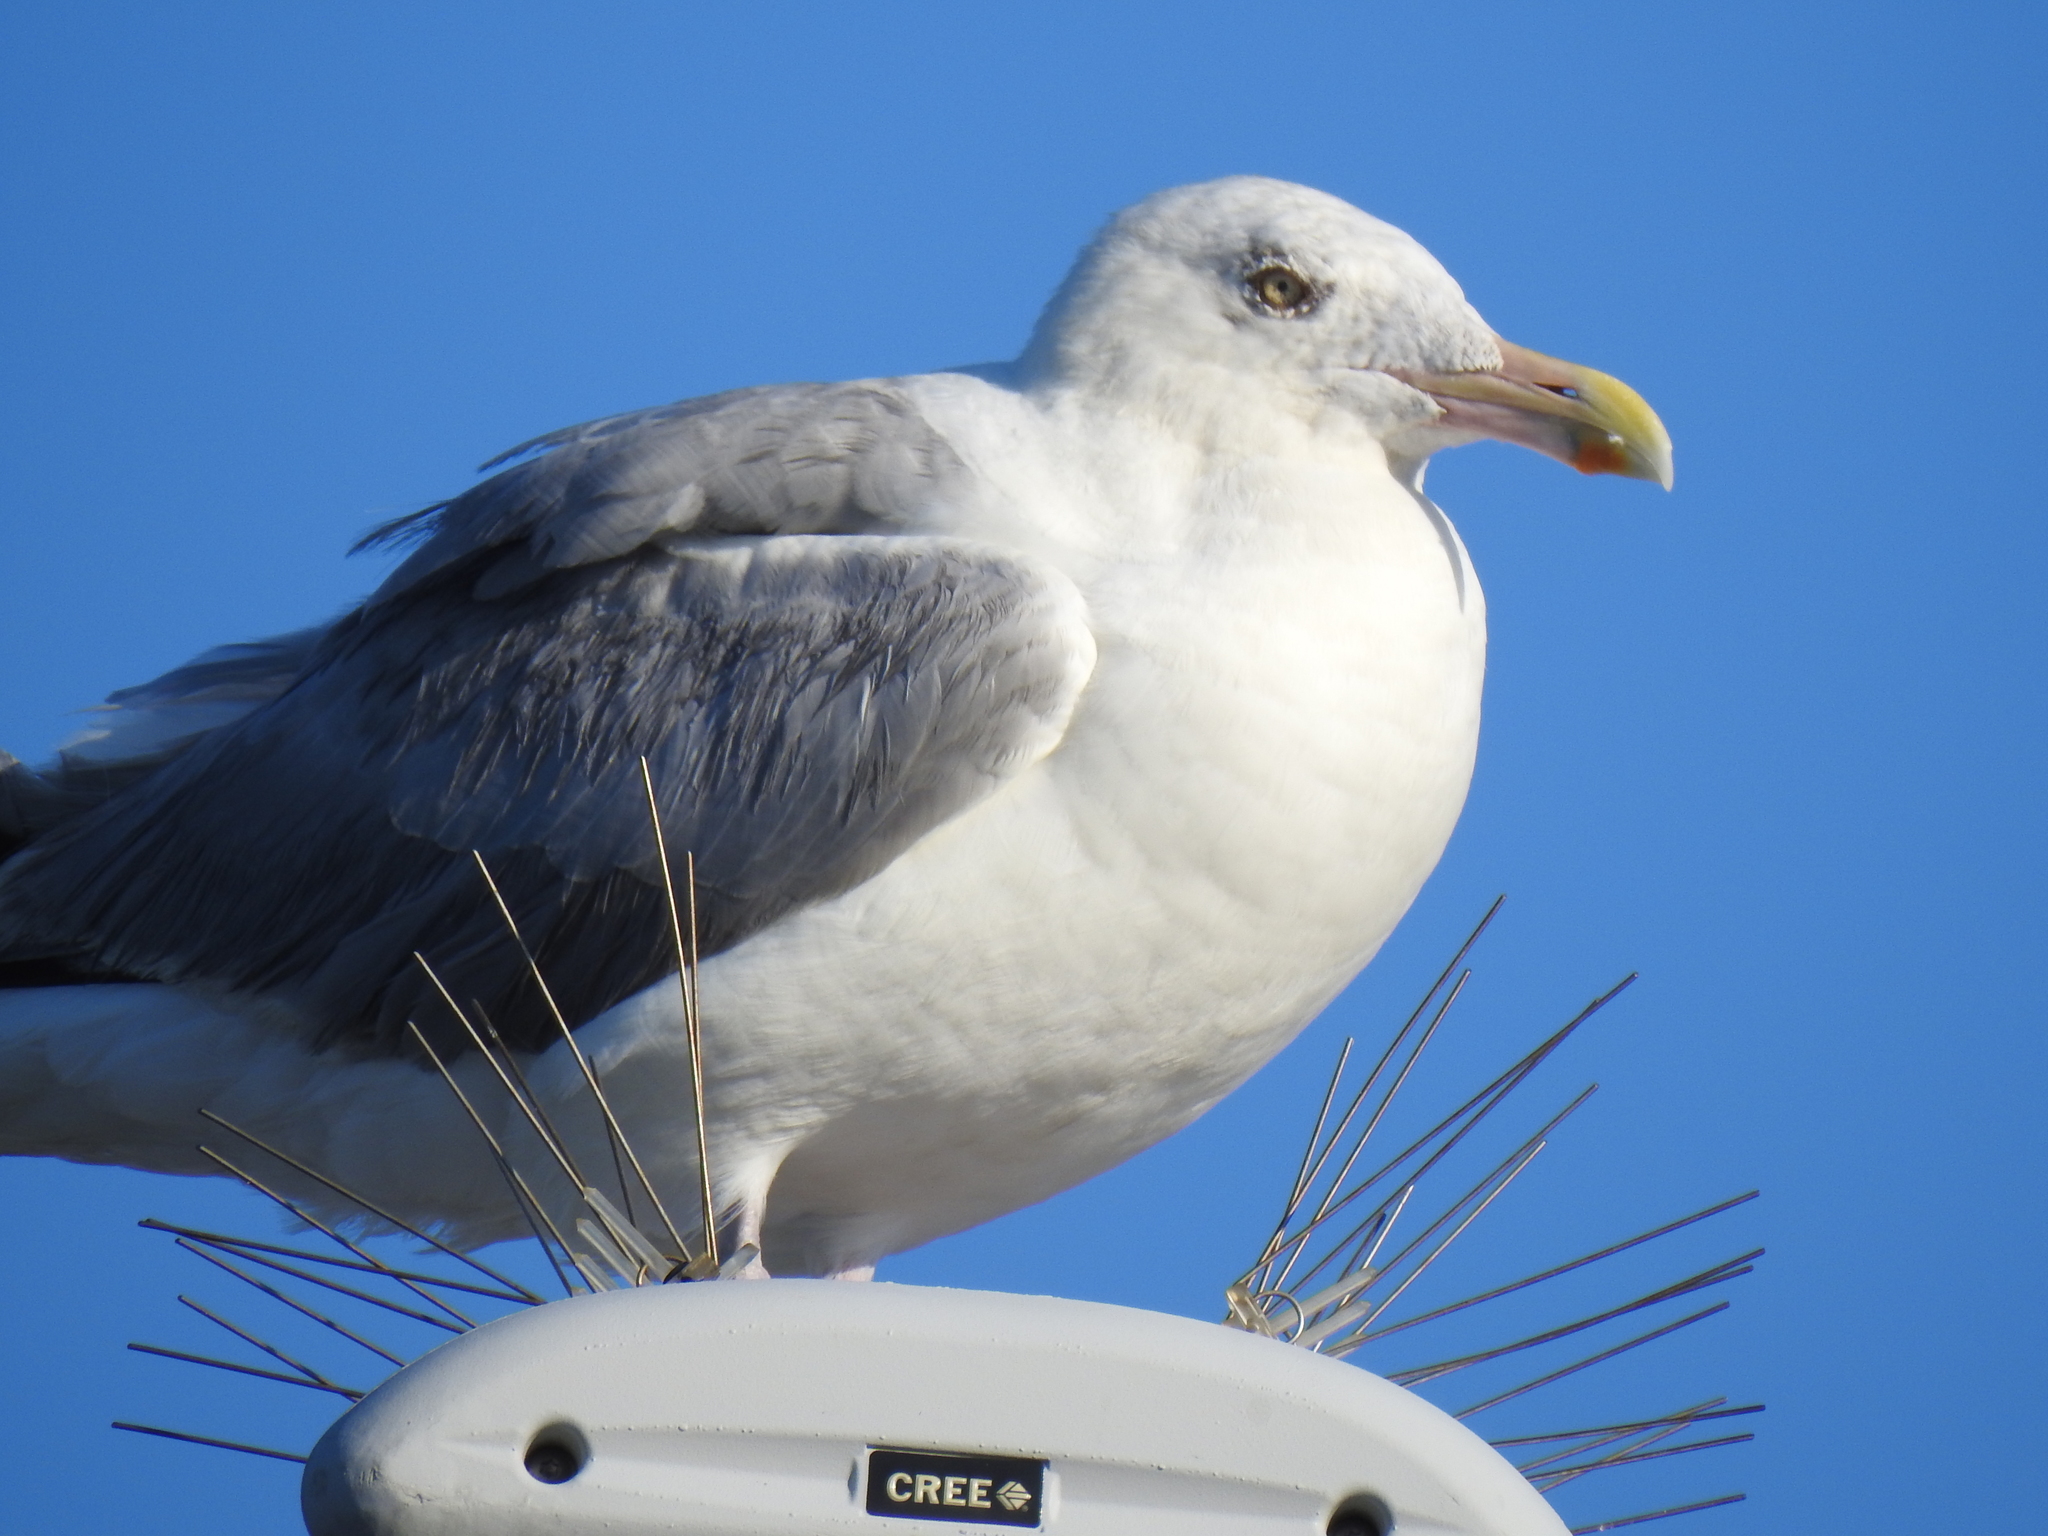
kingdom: Animalia
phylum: Chordata
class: Aves
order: Charadriiformes
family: Laridae
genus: Larus
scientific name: Larus argentatus
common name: Herring gull
